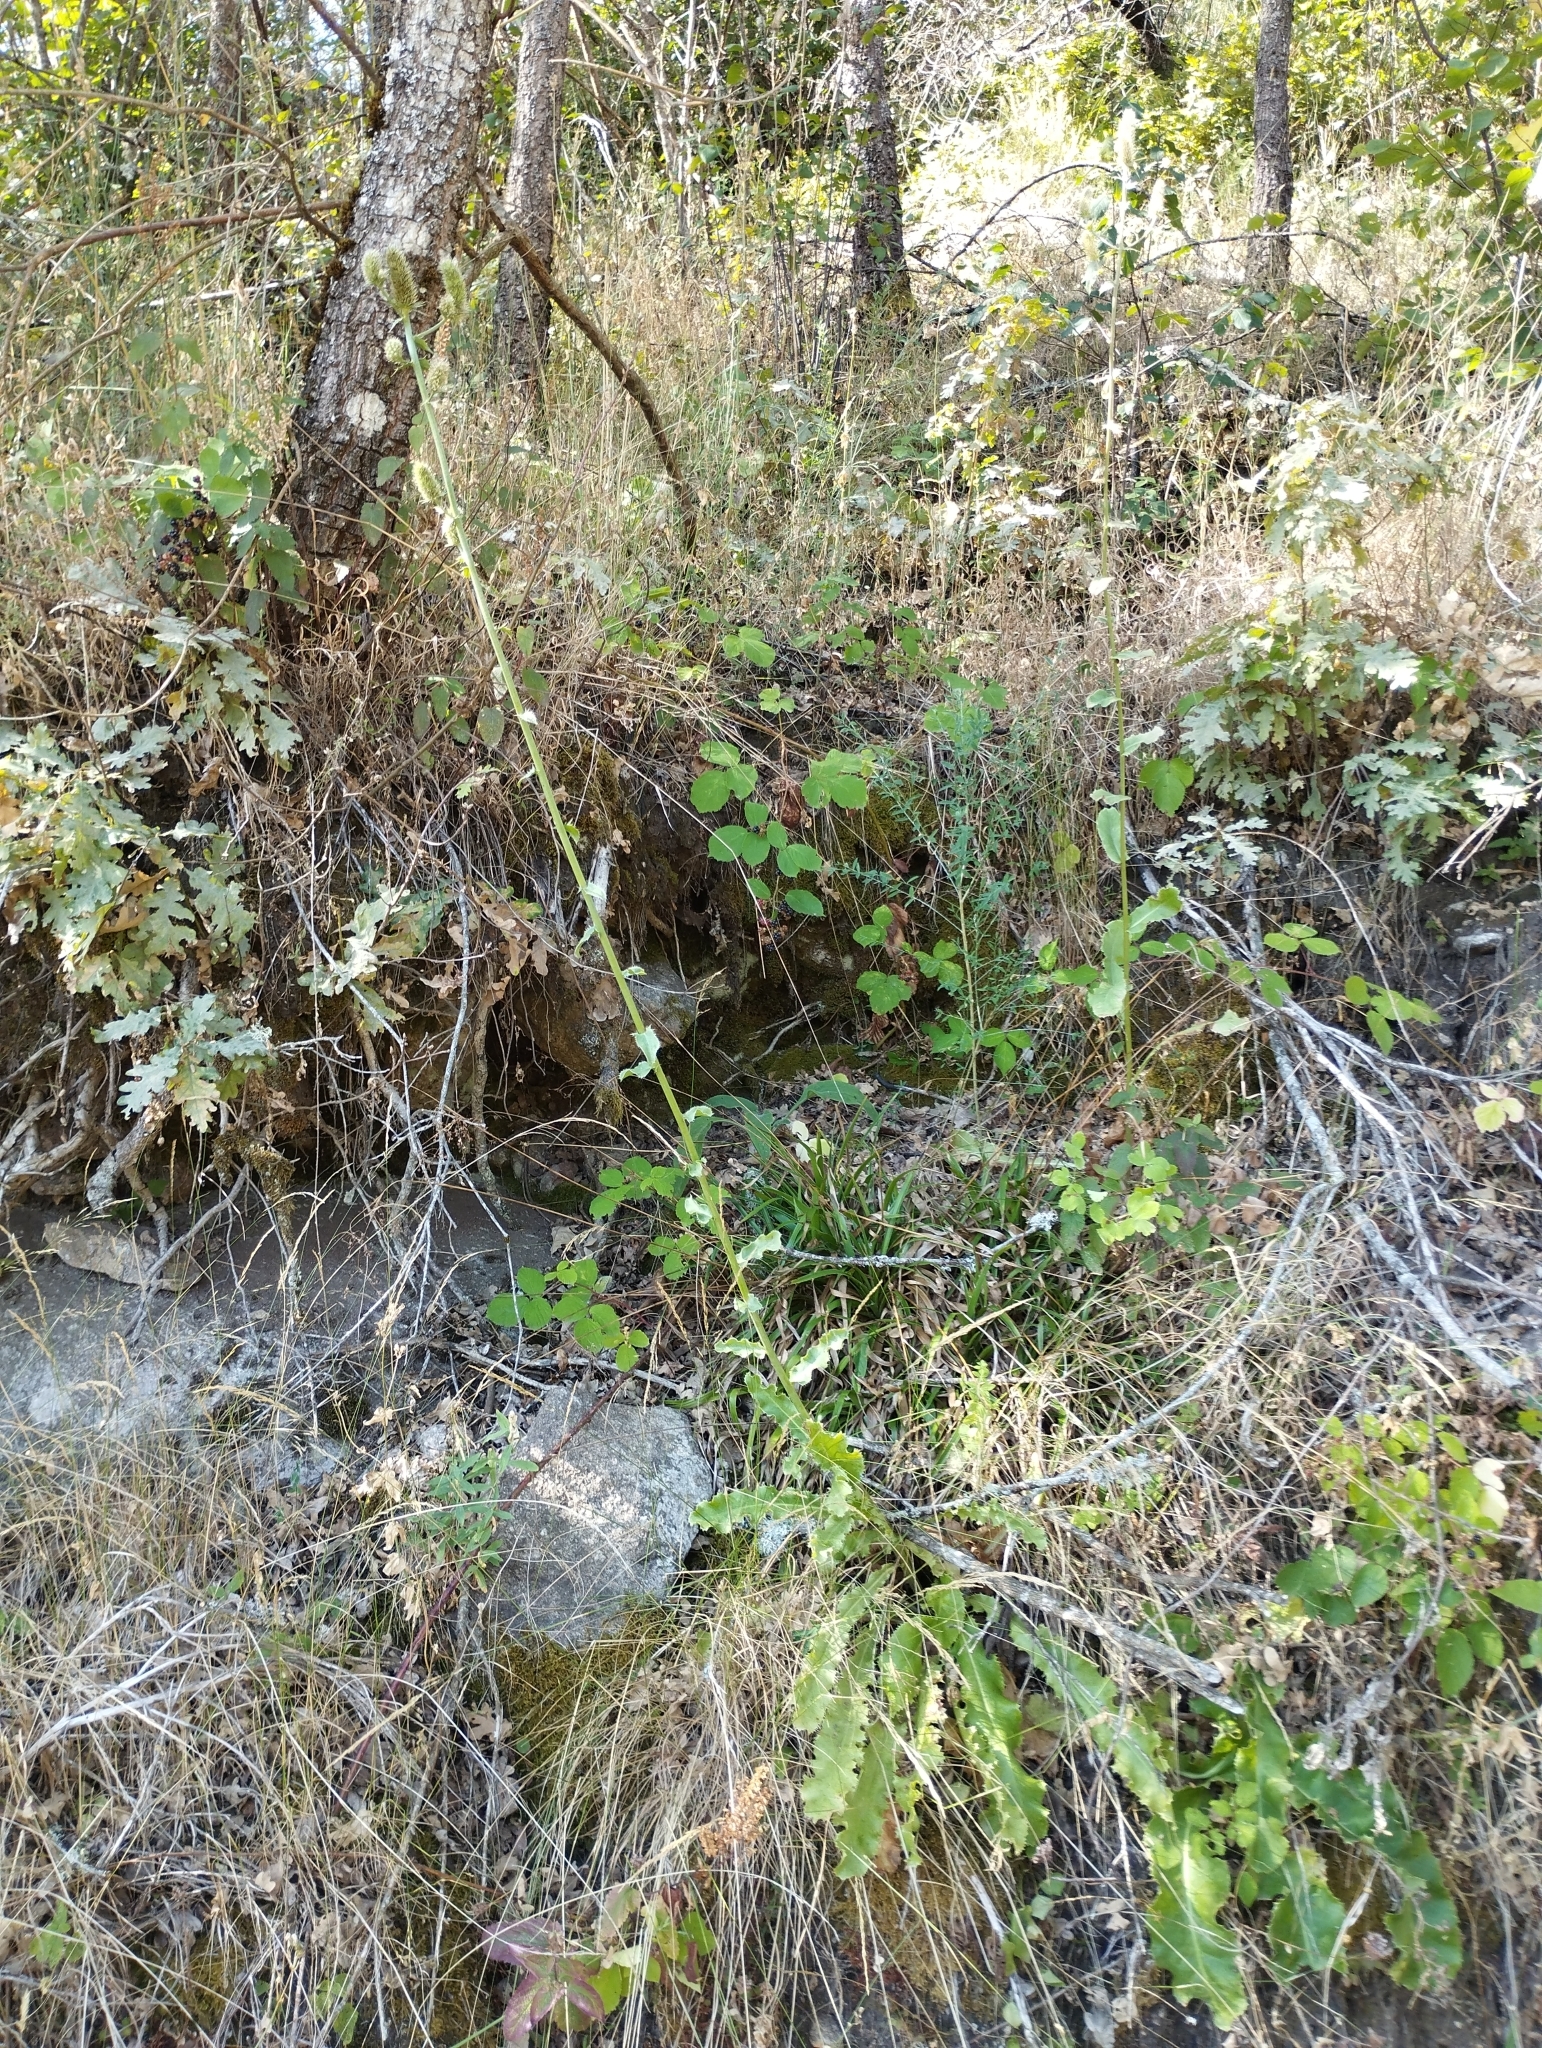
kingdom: Plantae
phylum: Tracheophyta
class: Magnoliopsida
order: Apiales
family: Apiaceae
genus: Eryngium
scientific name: Eryngium duriaei
